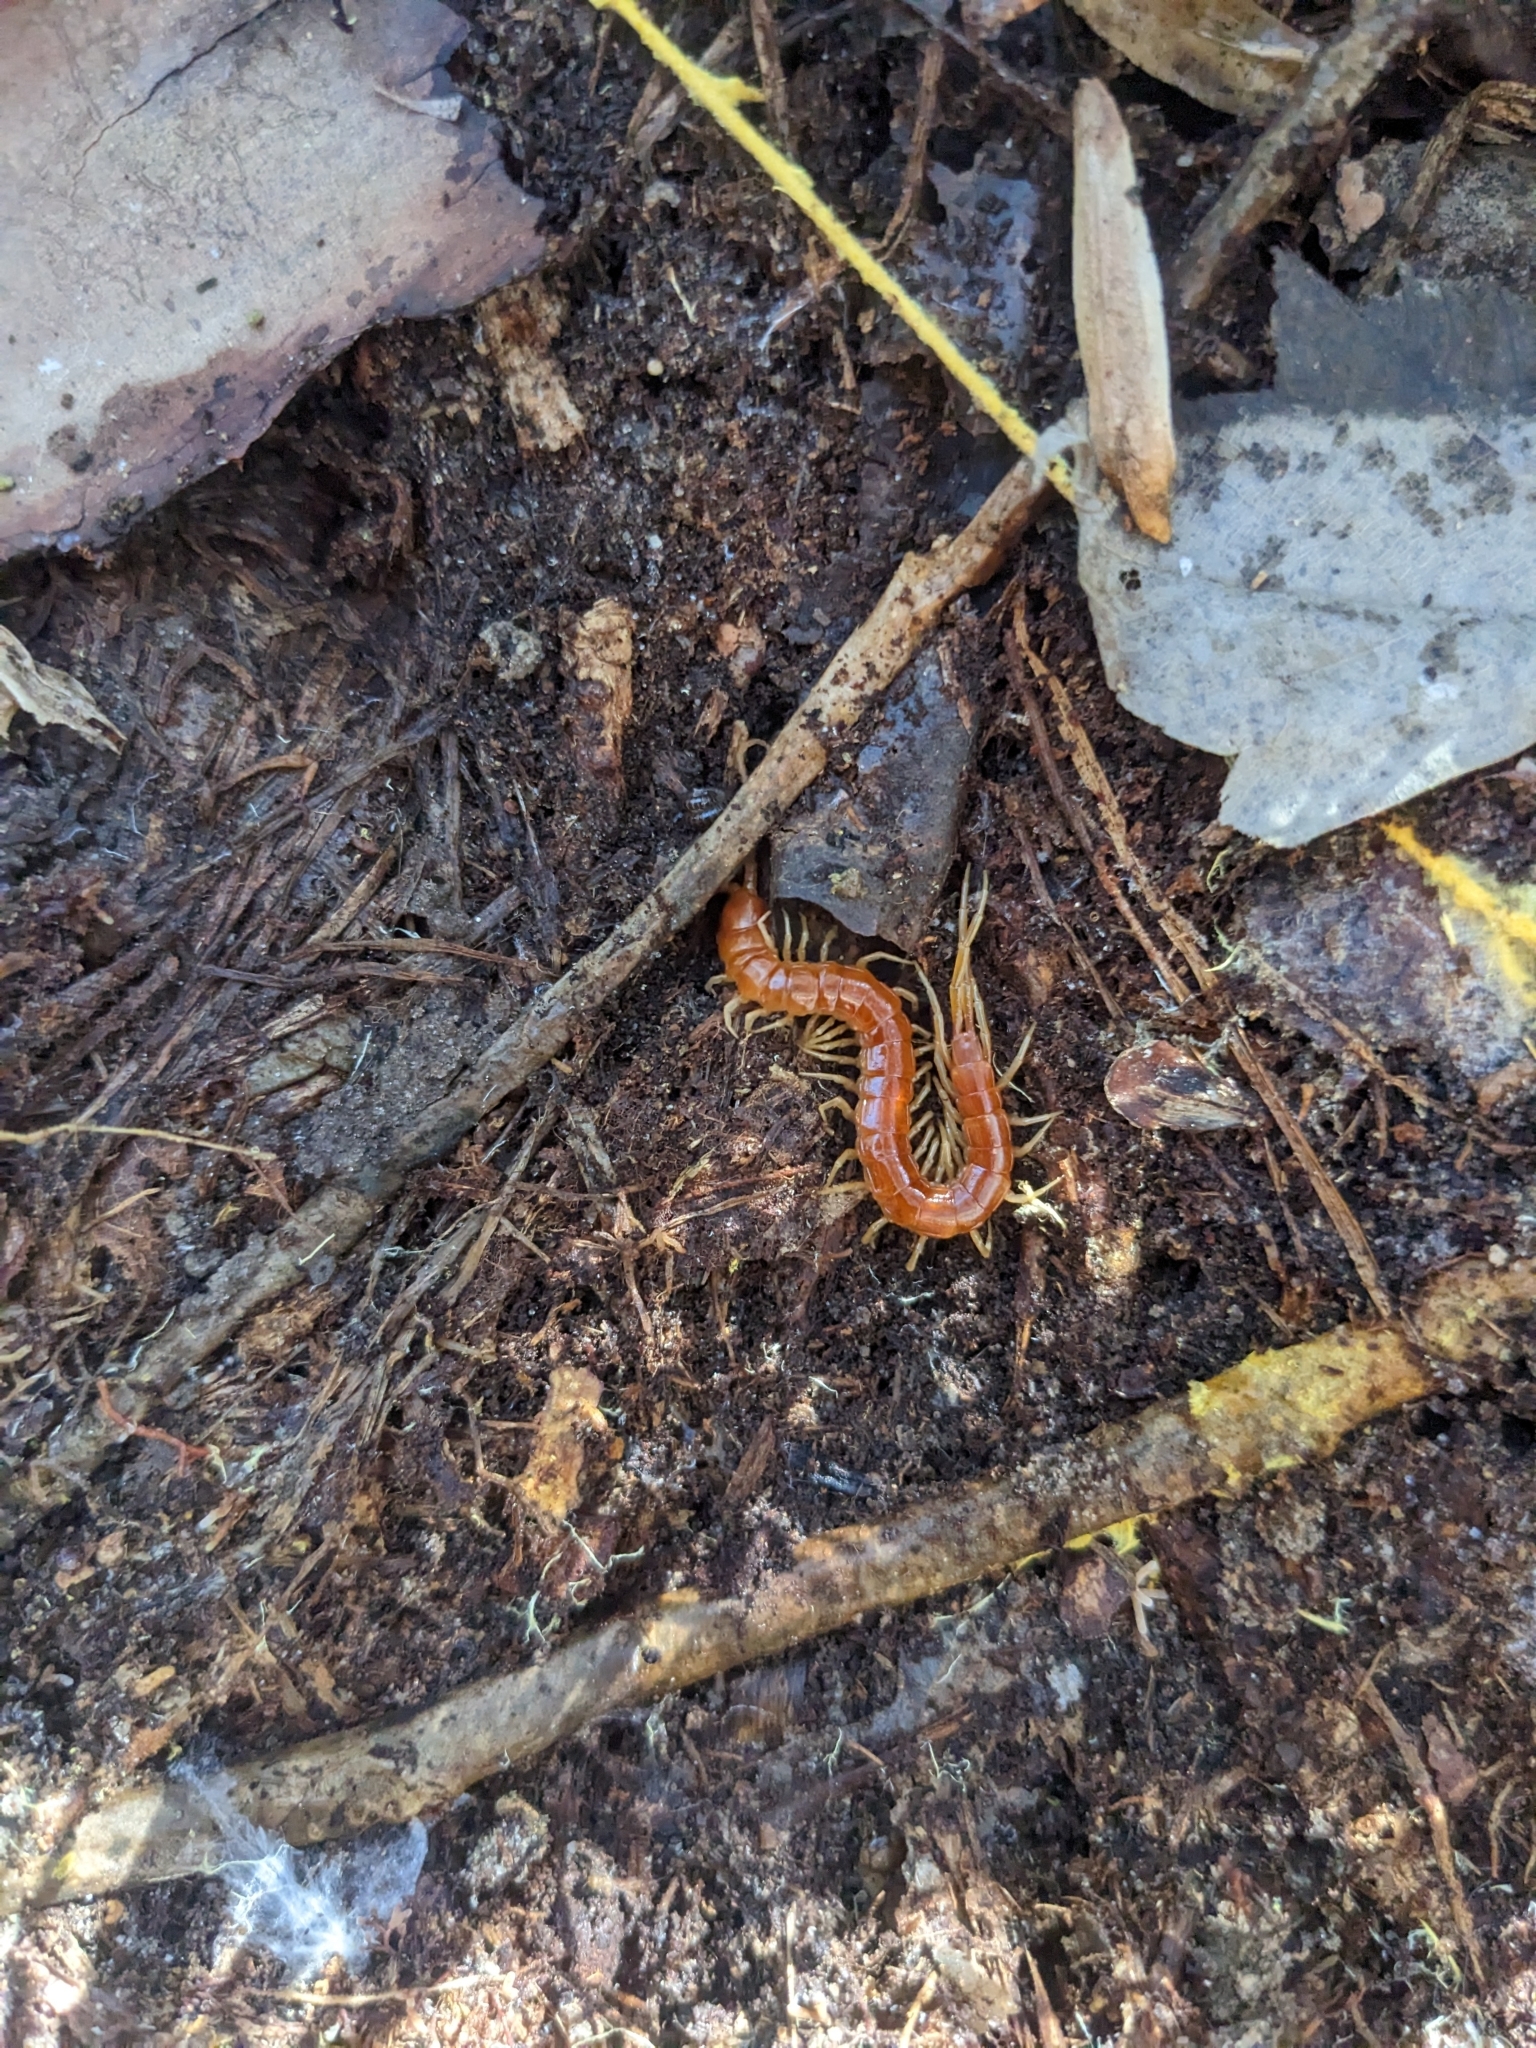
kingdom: Animalia
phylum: Arthropoda
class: Chilopoda
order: Scolopendromorpha
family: Scolopocryptopidae
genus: Scolopocryptops
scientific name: Scolopocryptops sexspinosus
